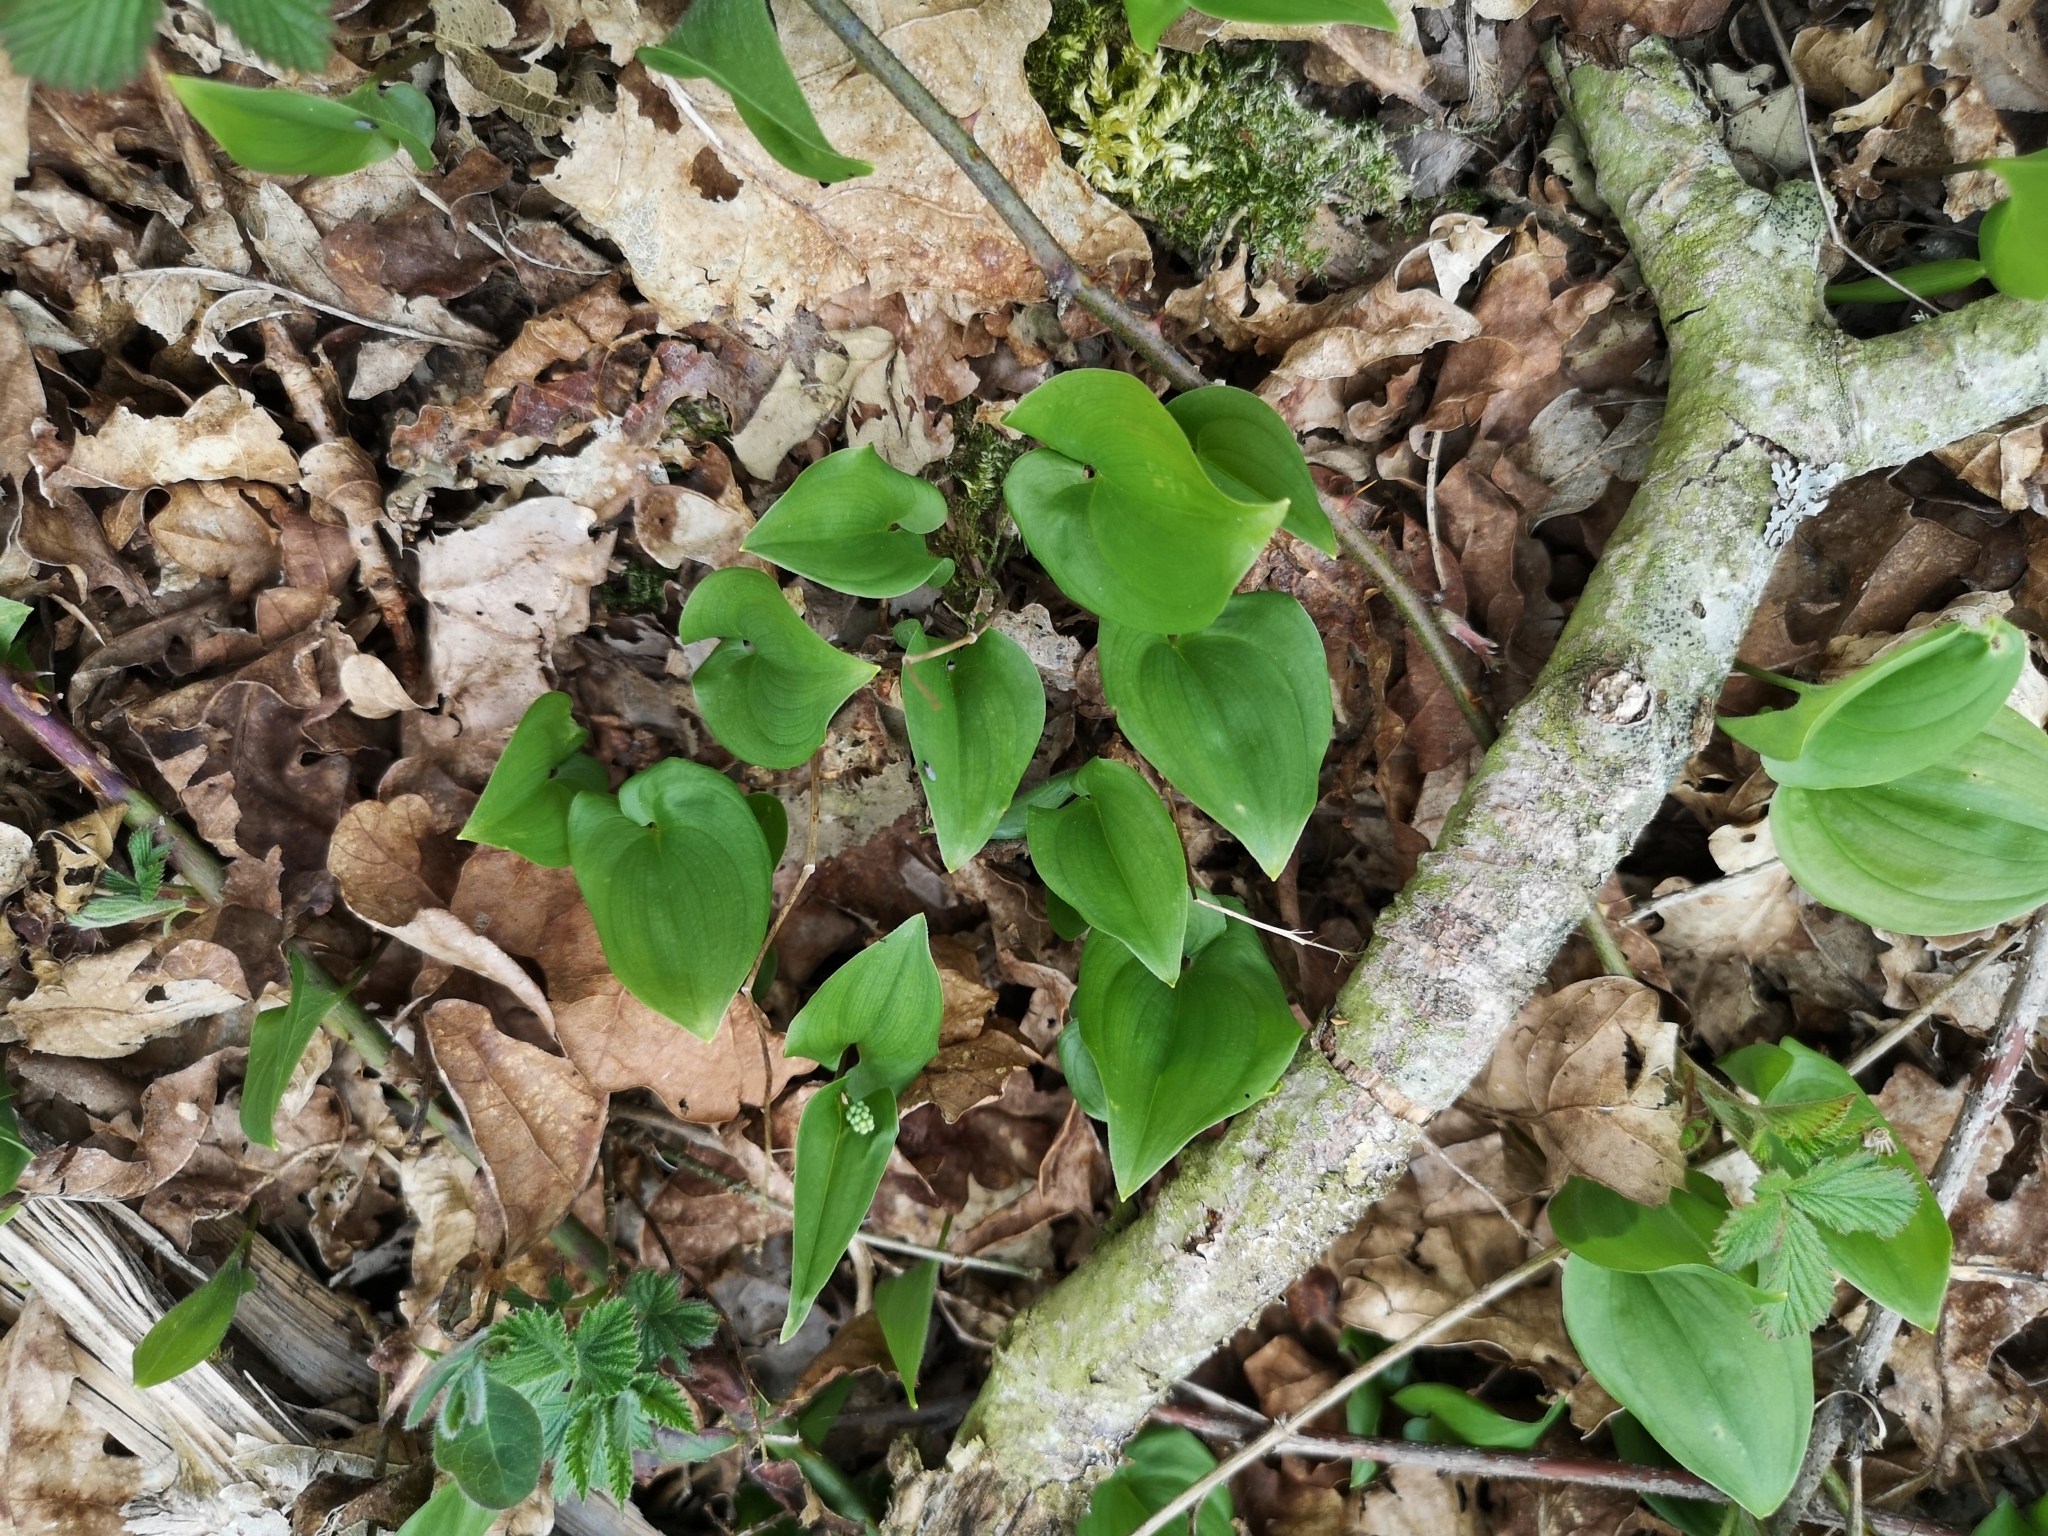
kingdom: Plantae
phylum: Tracheophyta
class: Liliopsida
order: Asparagales
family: Asparagaceae
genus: Maianthemum
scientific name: Maianthemum bifolium
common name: May lily
